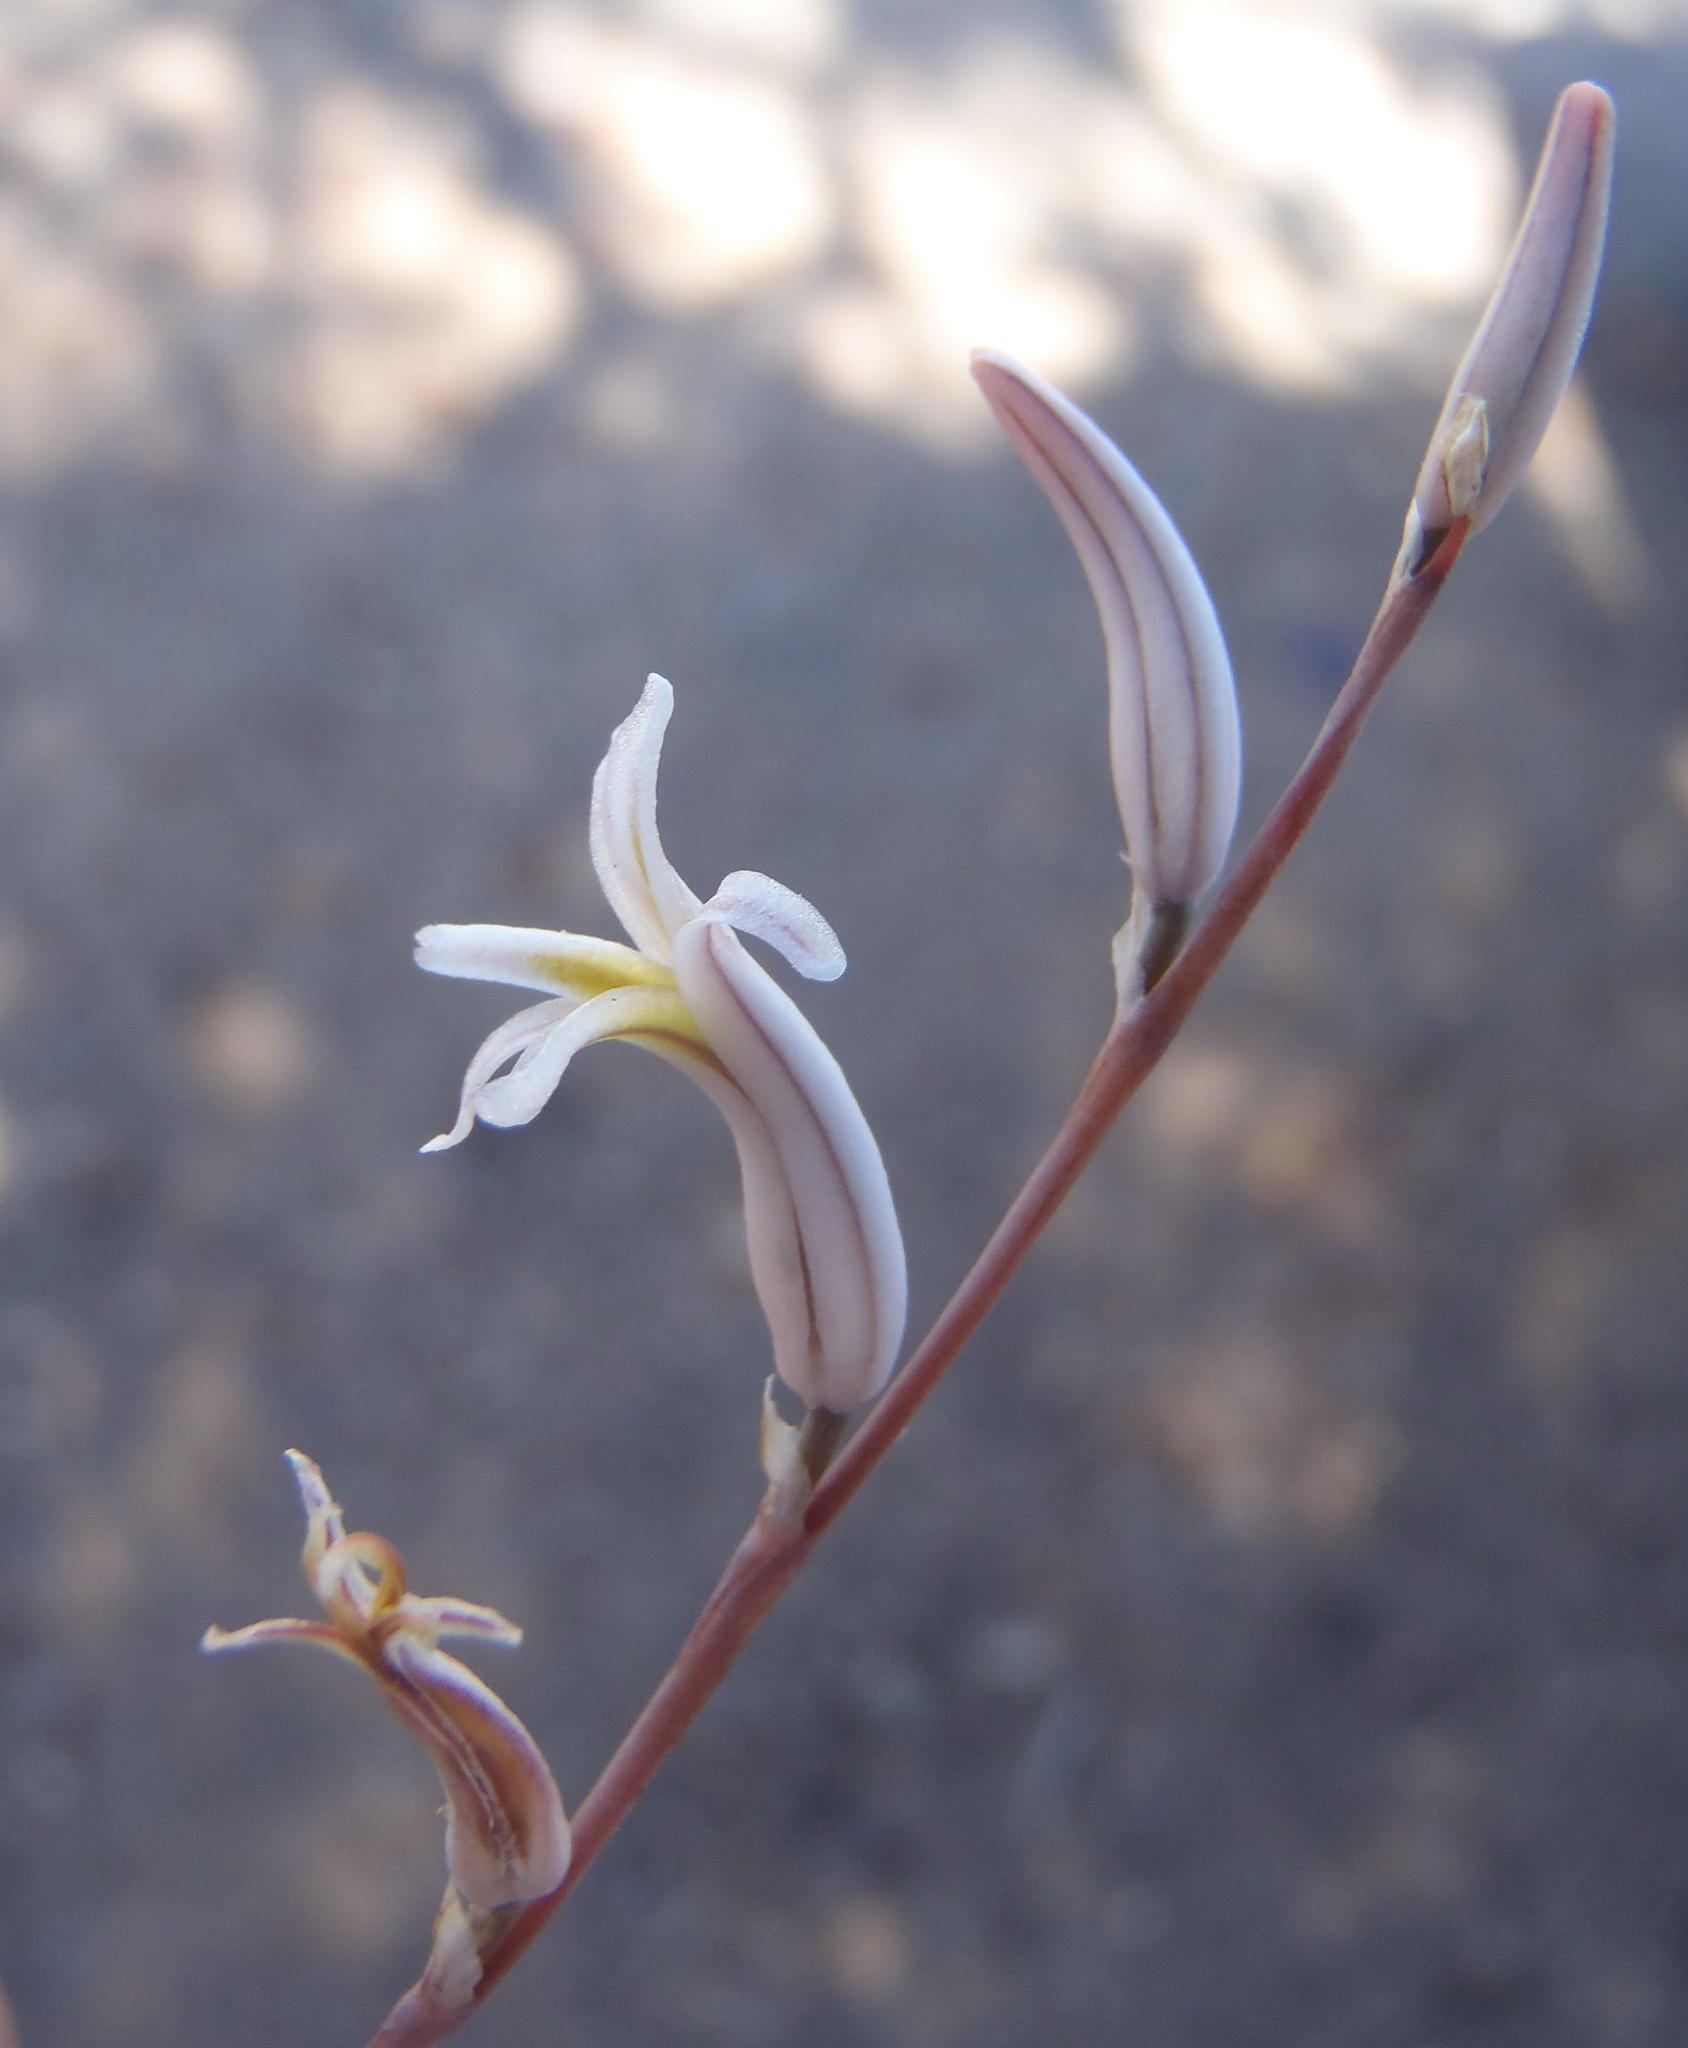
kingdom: Plantae
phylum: Tracheophyta
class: Liliopsida
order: Asparagales
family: Asphodelaceae
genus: Haworthia
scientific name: Haworthia outeniquensis
